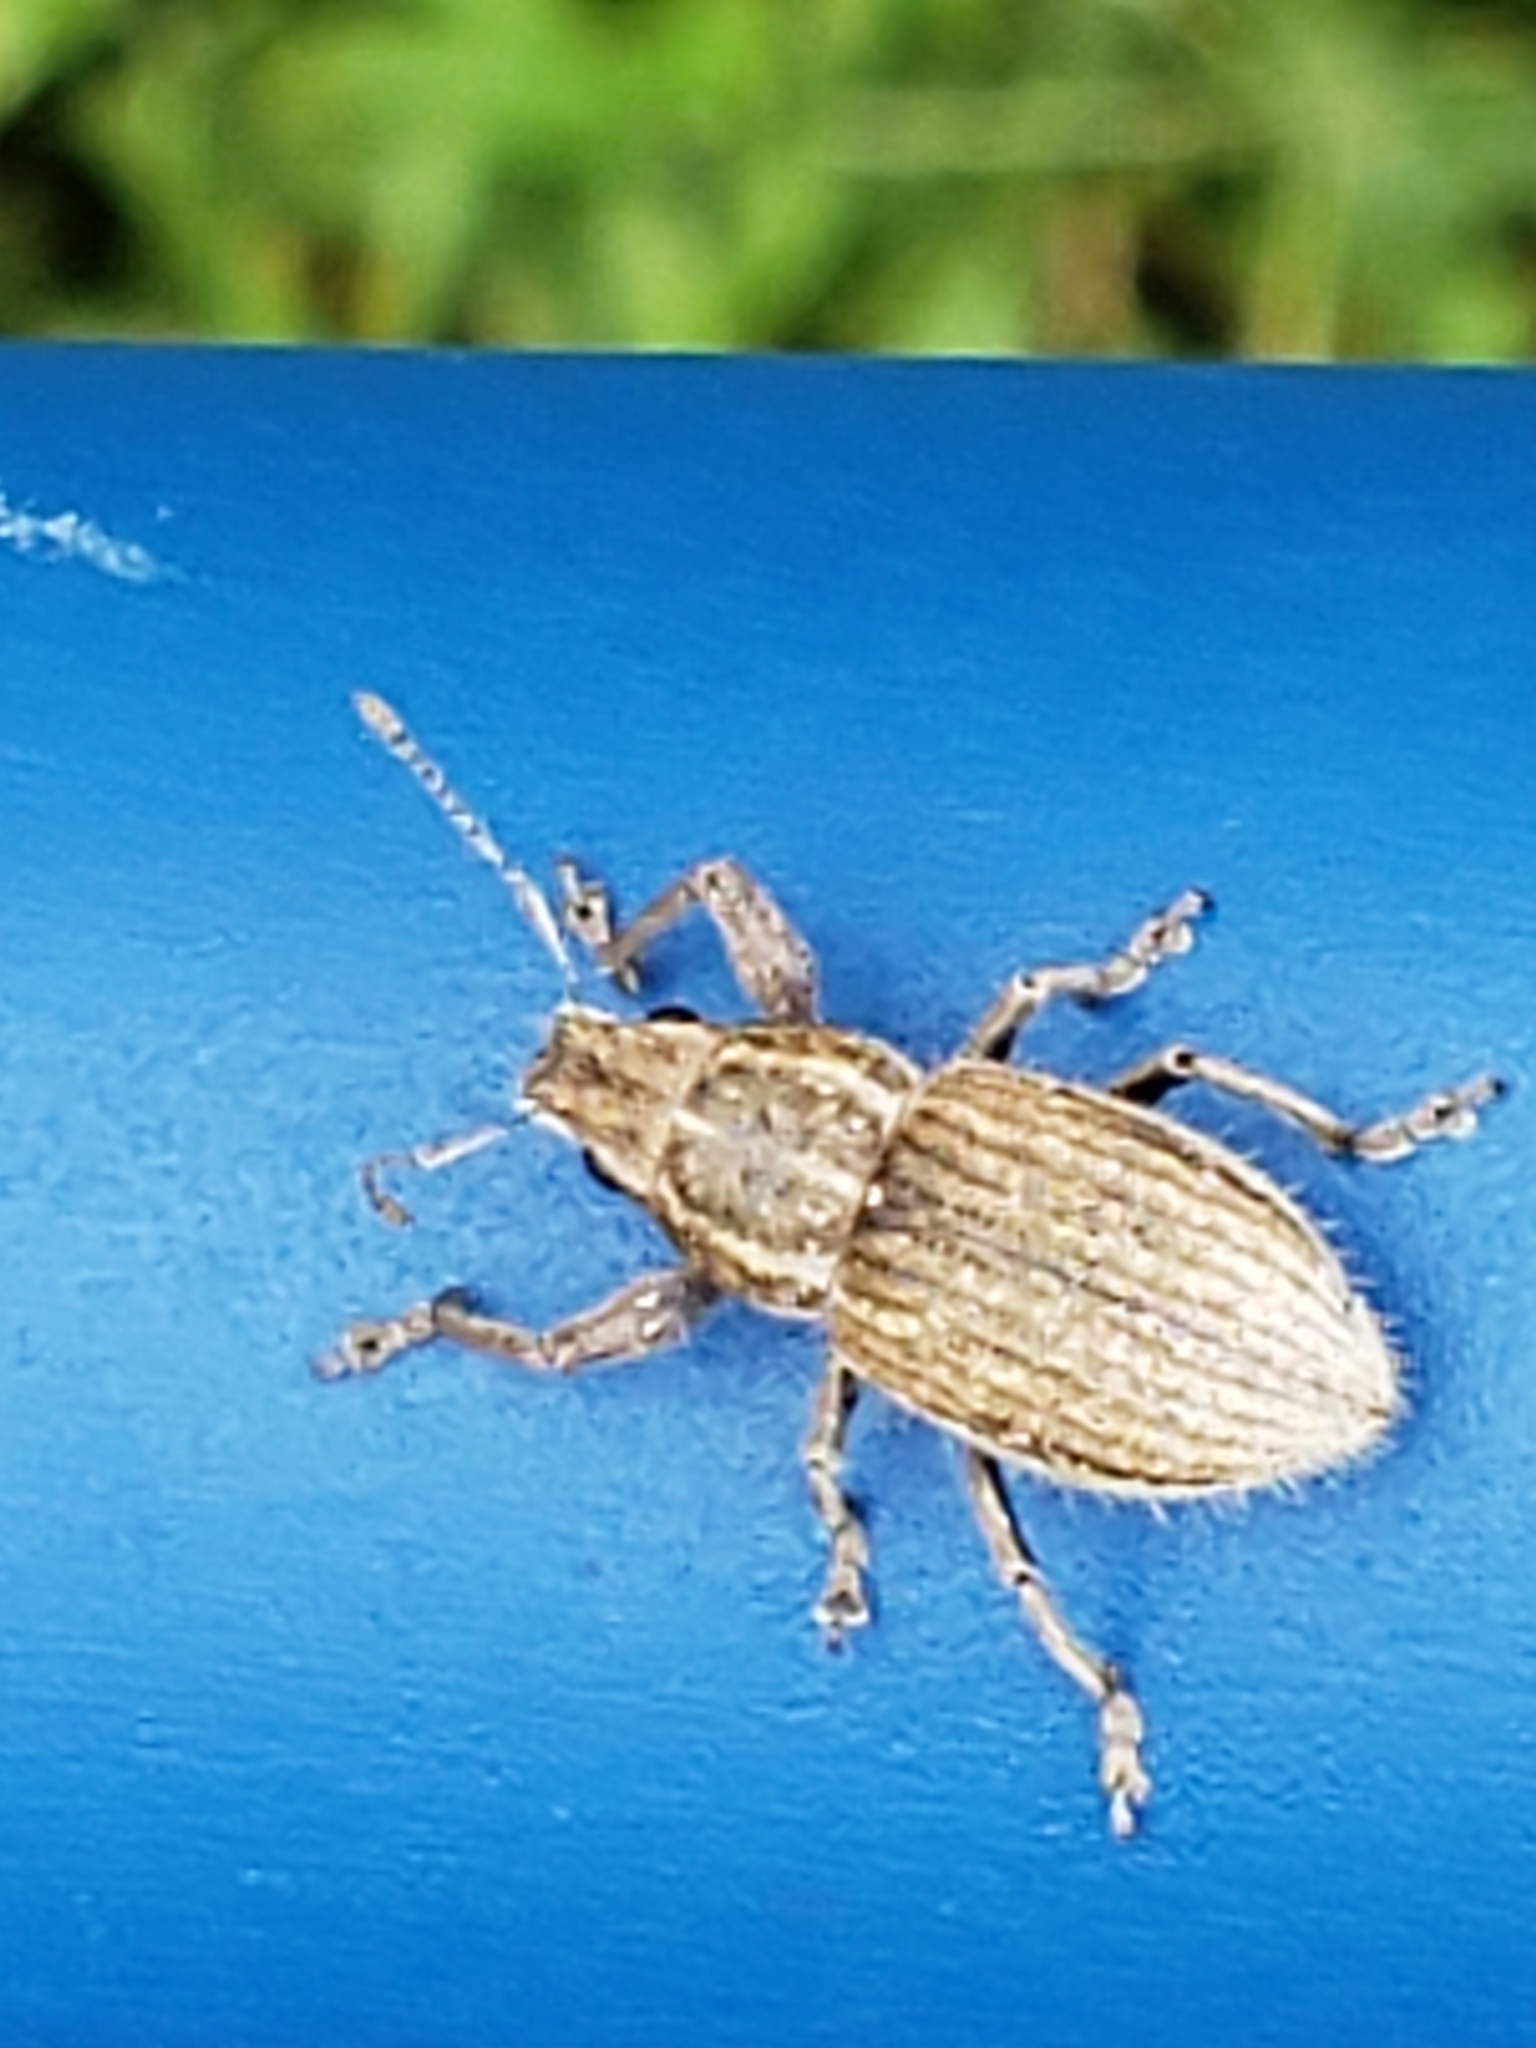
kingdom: Animalia
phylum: Arthropoda
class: Insecta
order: Coleoptera
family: Curculionidae
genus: Naupactus
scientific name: Naupactus leucoloma
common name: Whitefringed beetle
